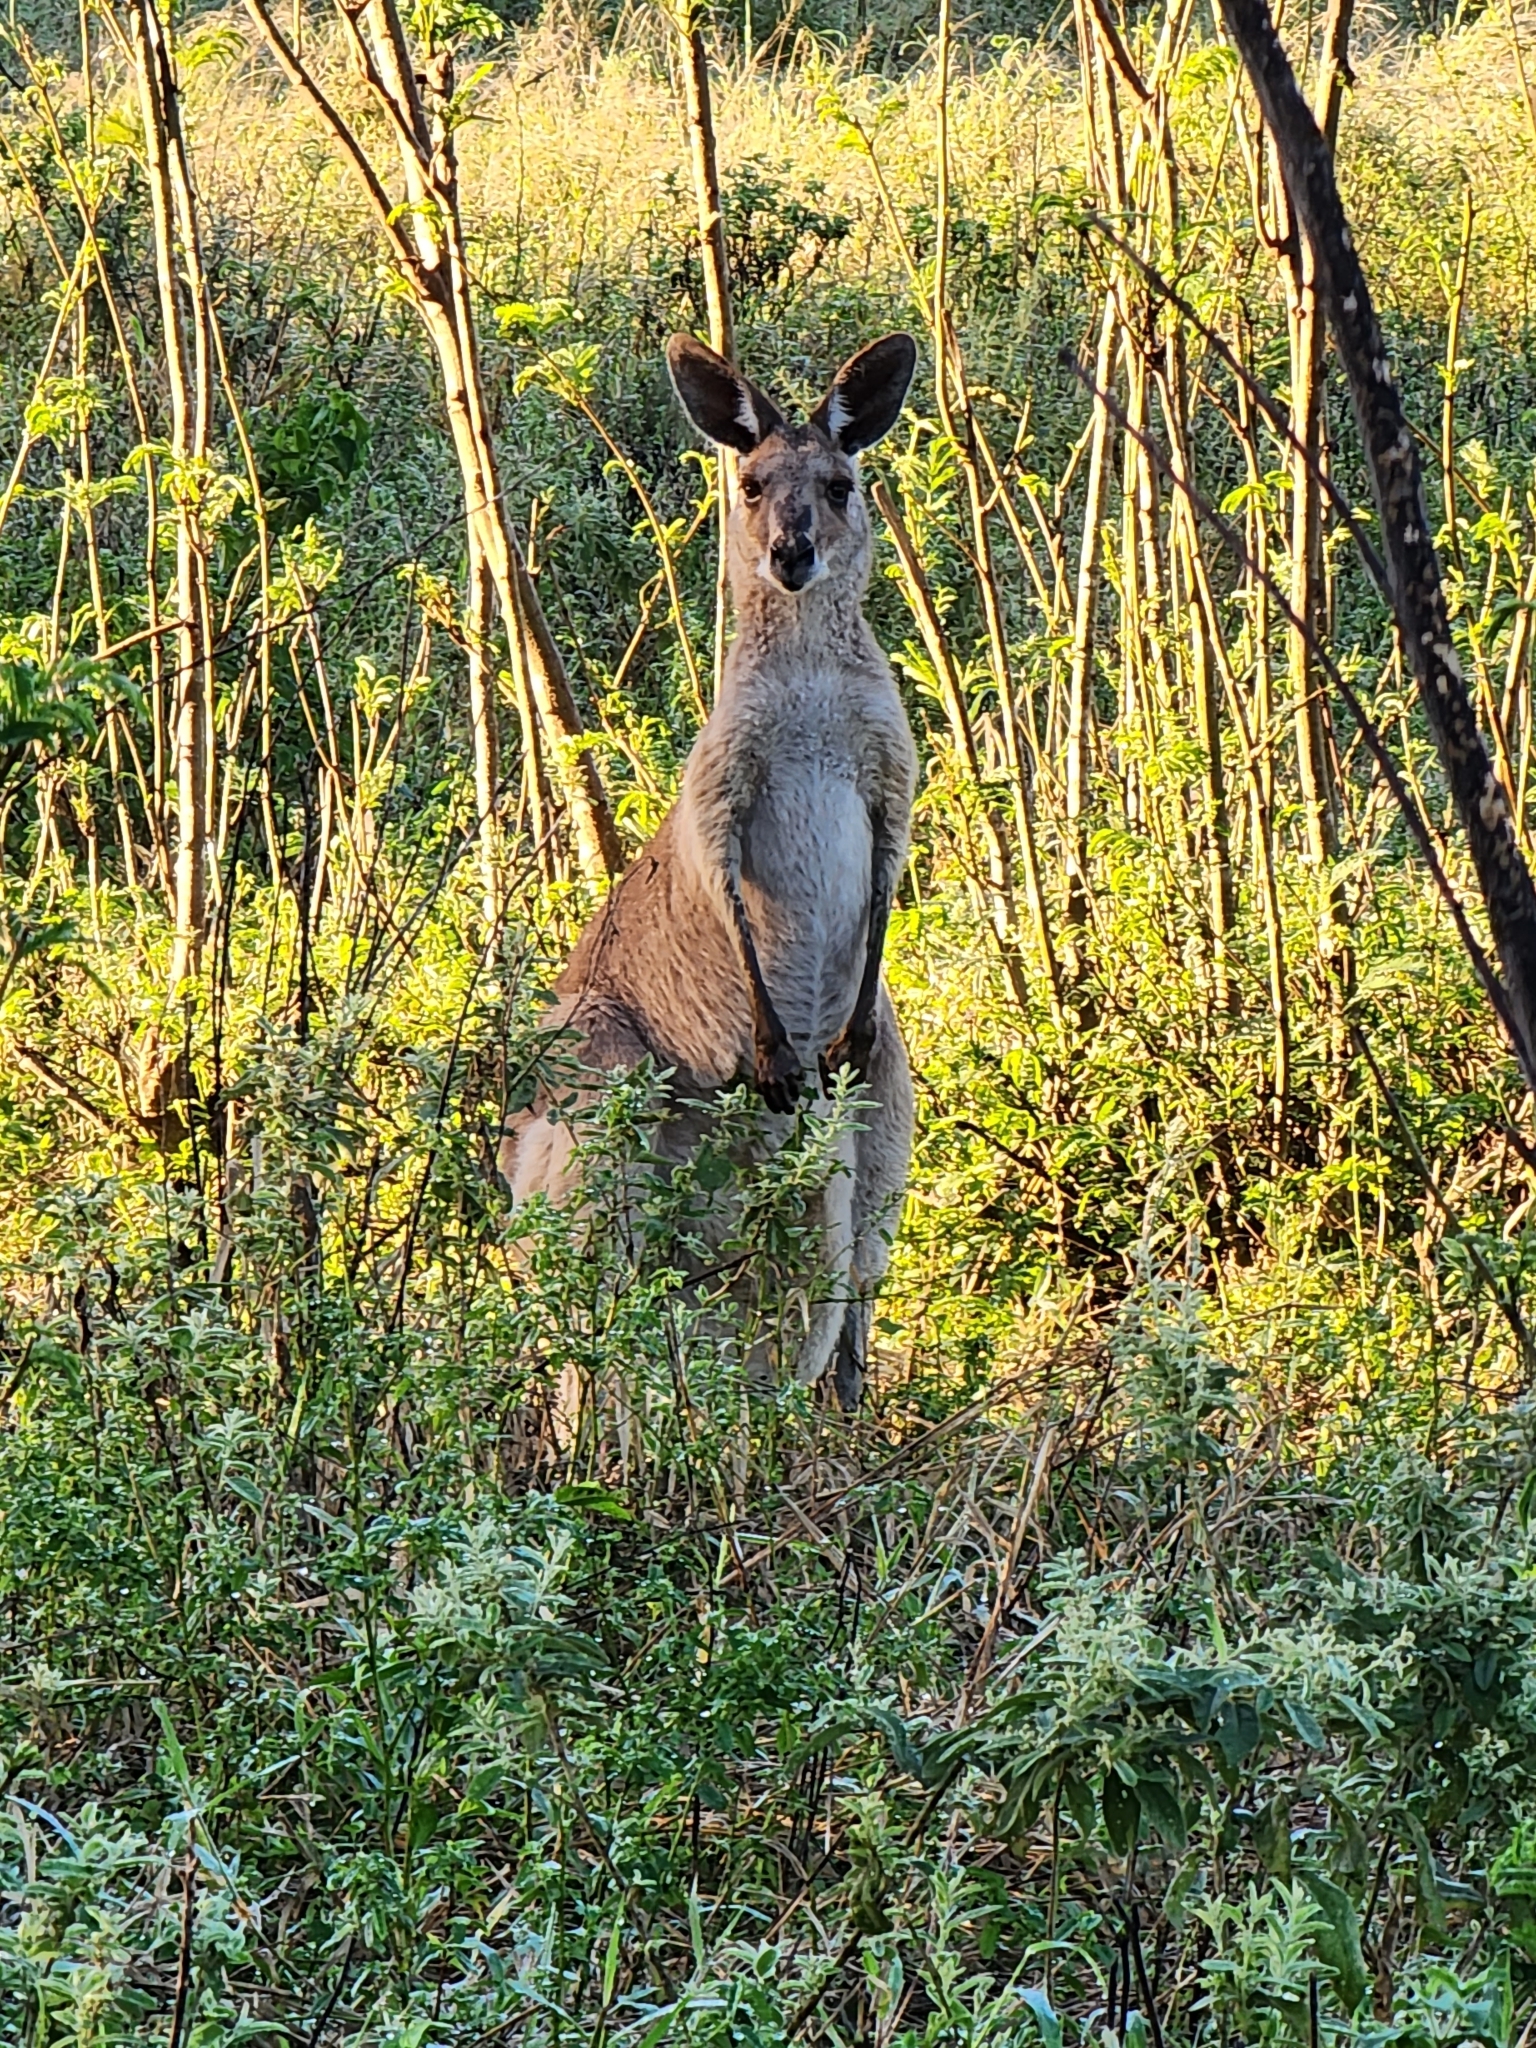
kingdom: Animalia
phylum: Chordata
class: Mammalia
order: Diprotodontia
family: Macropodidae
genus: Macropus
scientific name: Macropus giganteus
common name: Eastern grey kangaroo
